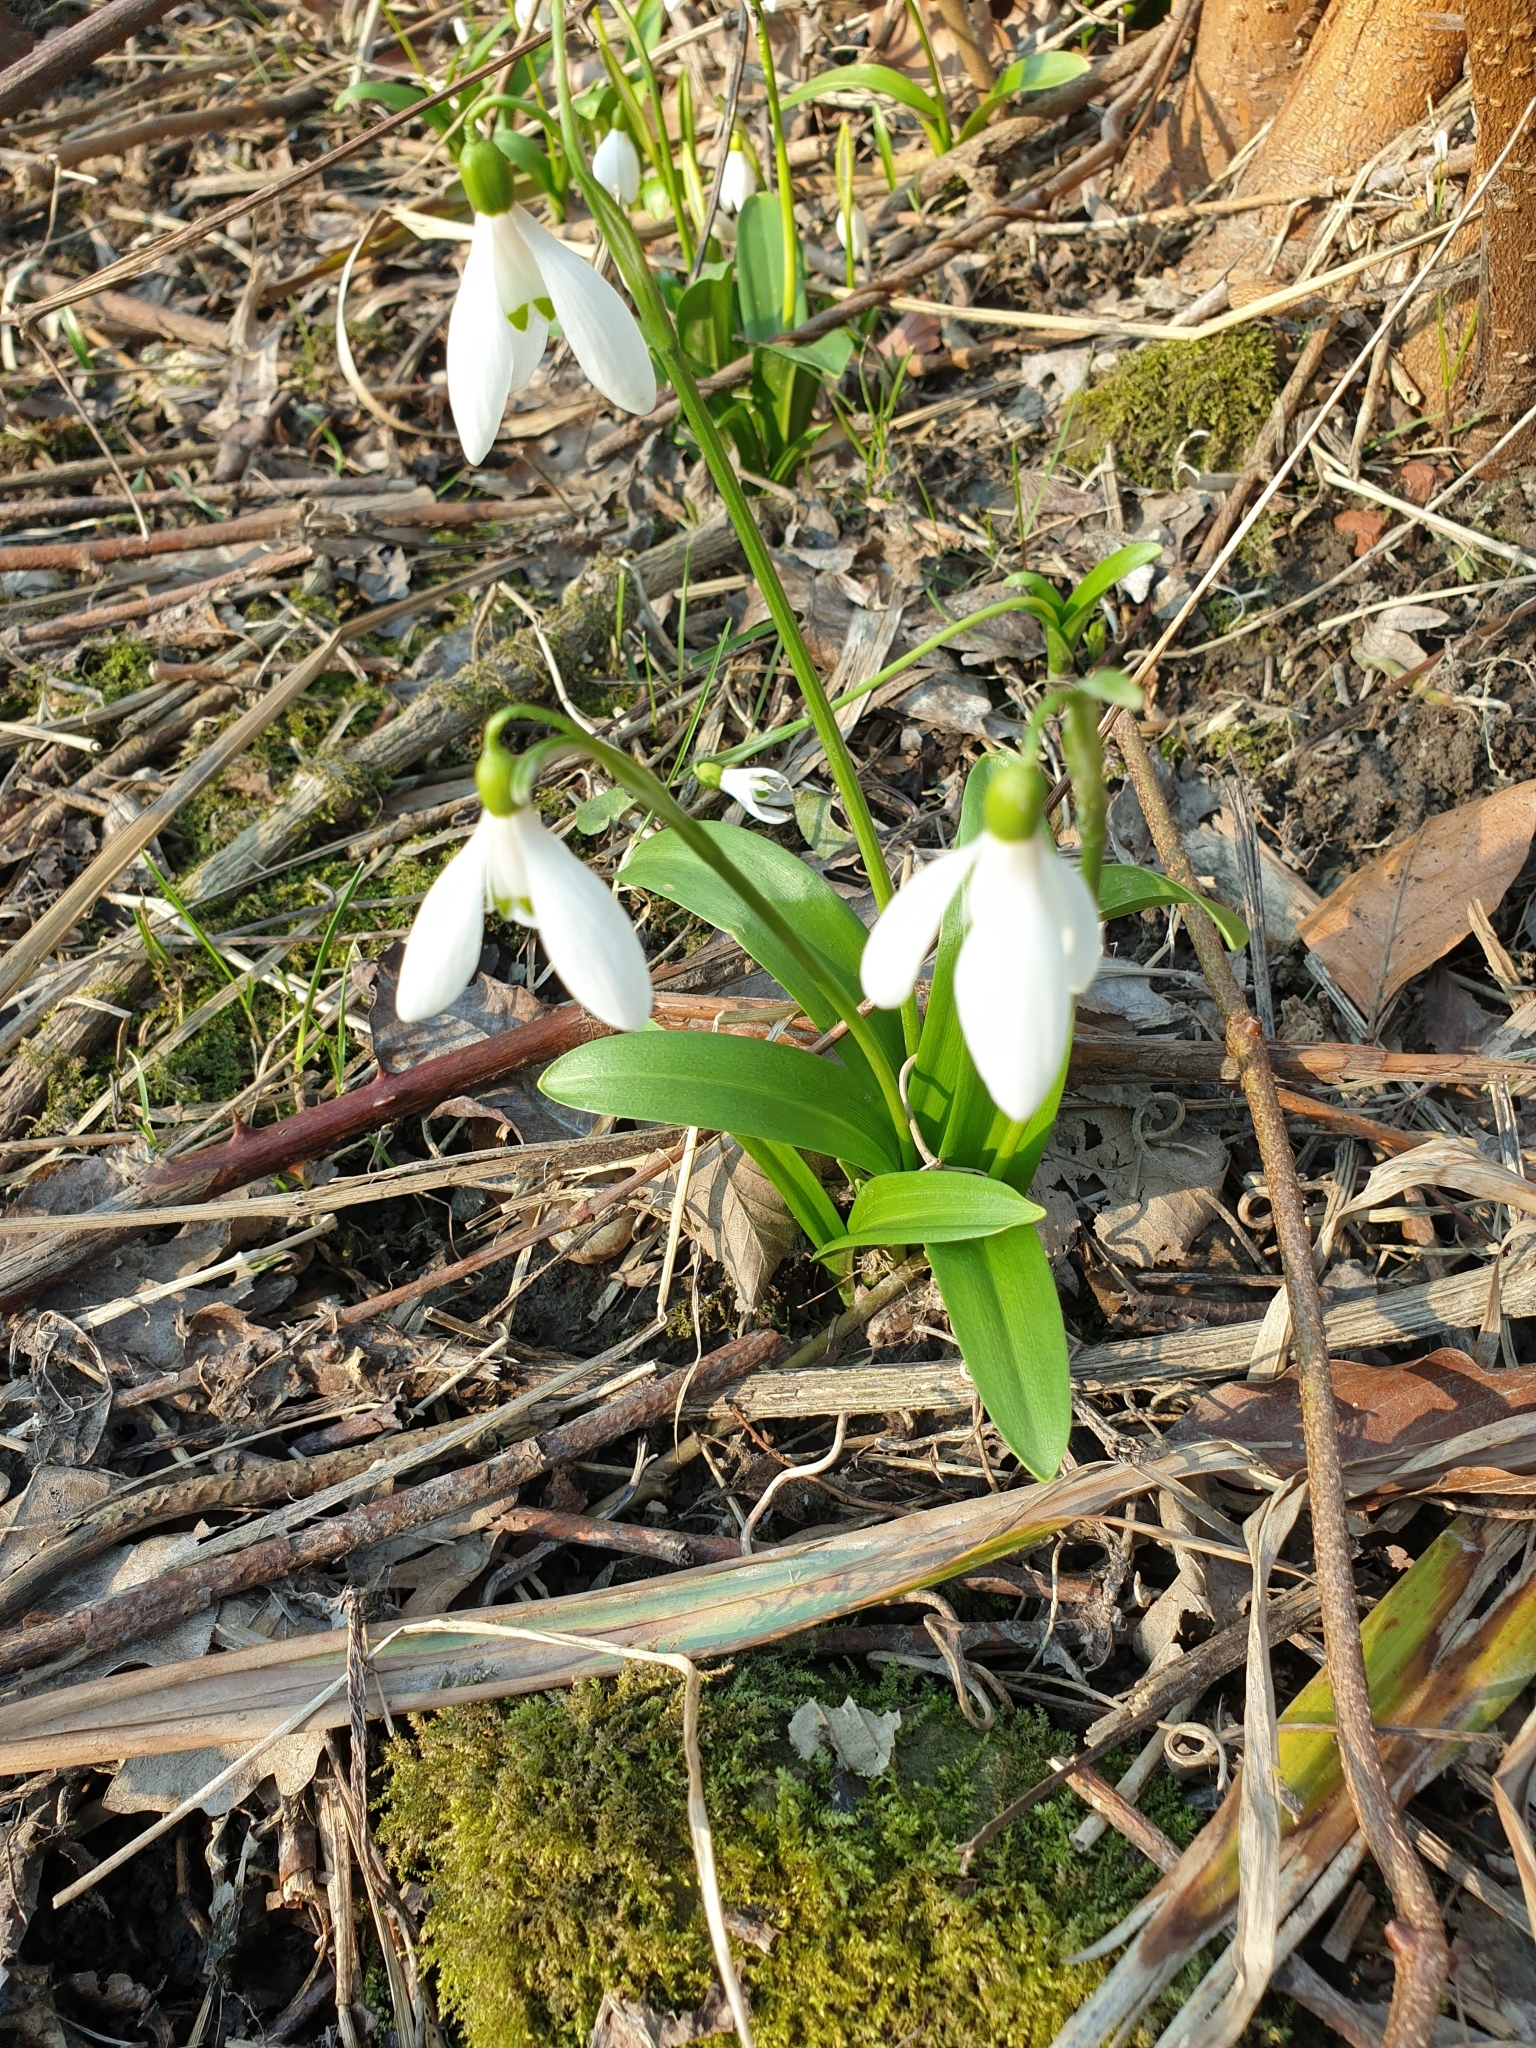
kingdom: Plantae
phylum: Tracheophyta
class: Liliopsida
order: Asparagales
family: Amaryllidaceae
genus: Galanthus
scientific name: Galanthus woronowii
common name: Green snowdrop
